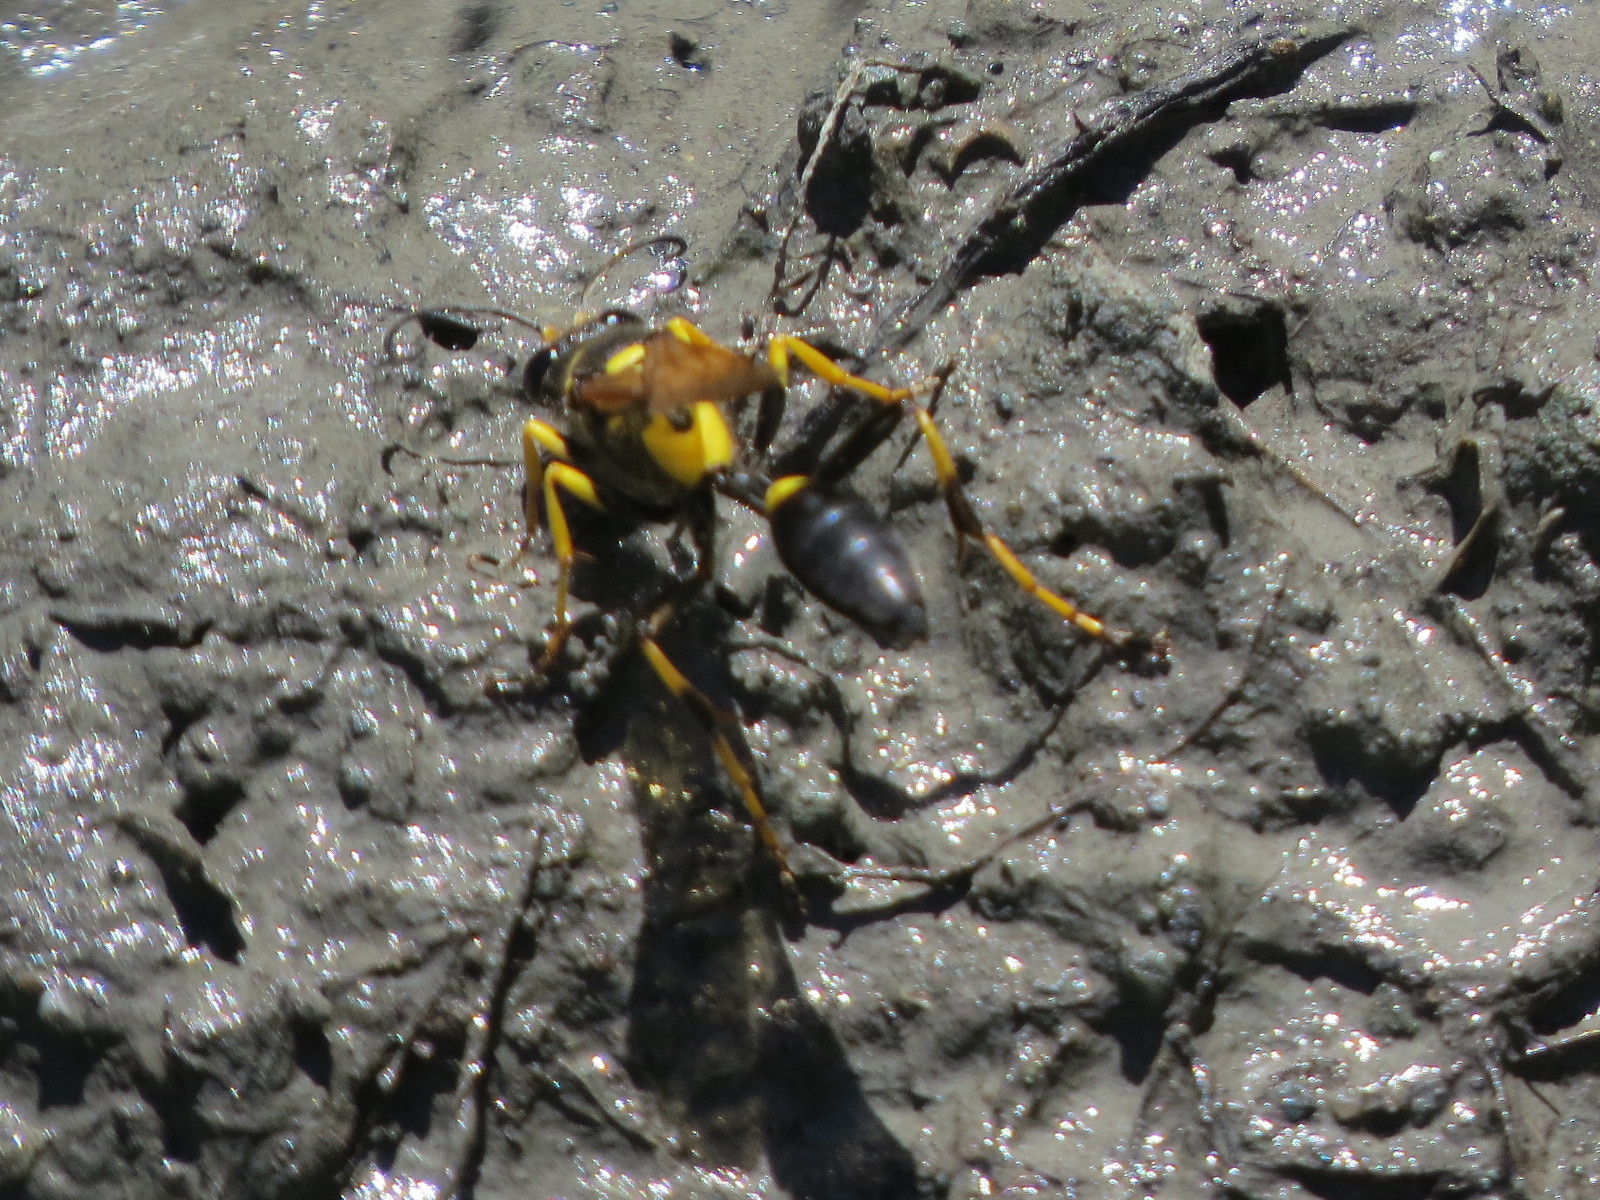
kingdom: Animalia
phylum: Arthropoda
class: Insecta
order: Hymenoptera
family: Sphecidae
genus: Sceliphron
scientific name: Sceliphron caementarium
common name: Mud dauber
